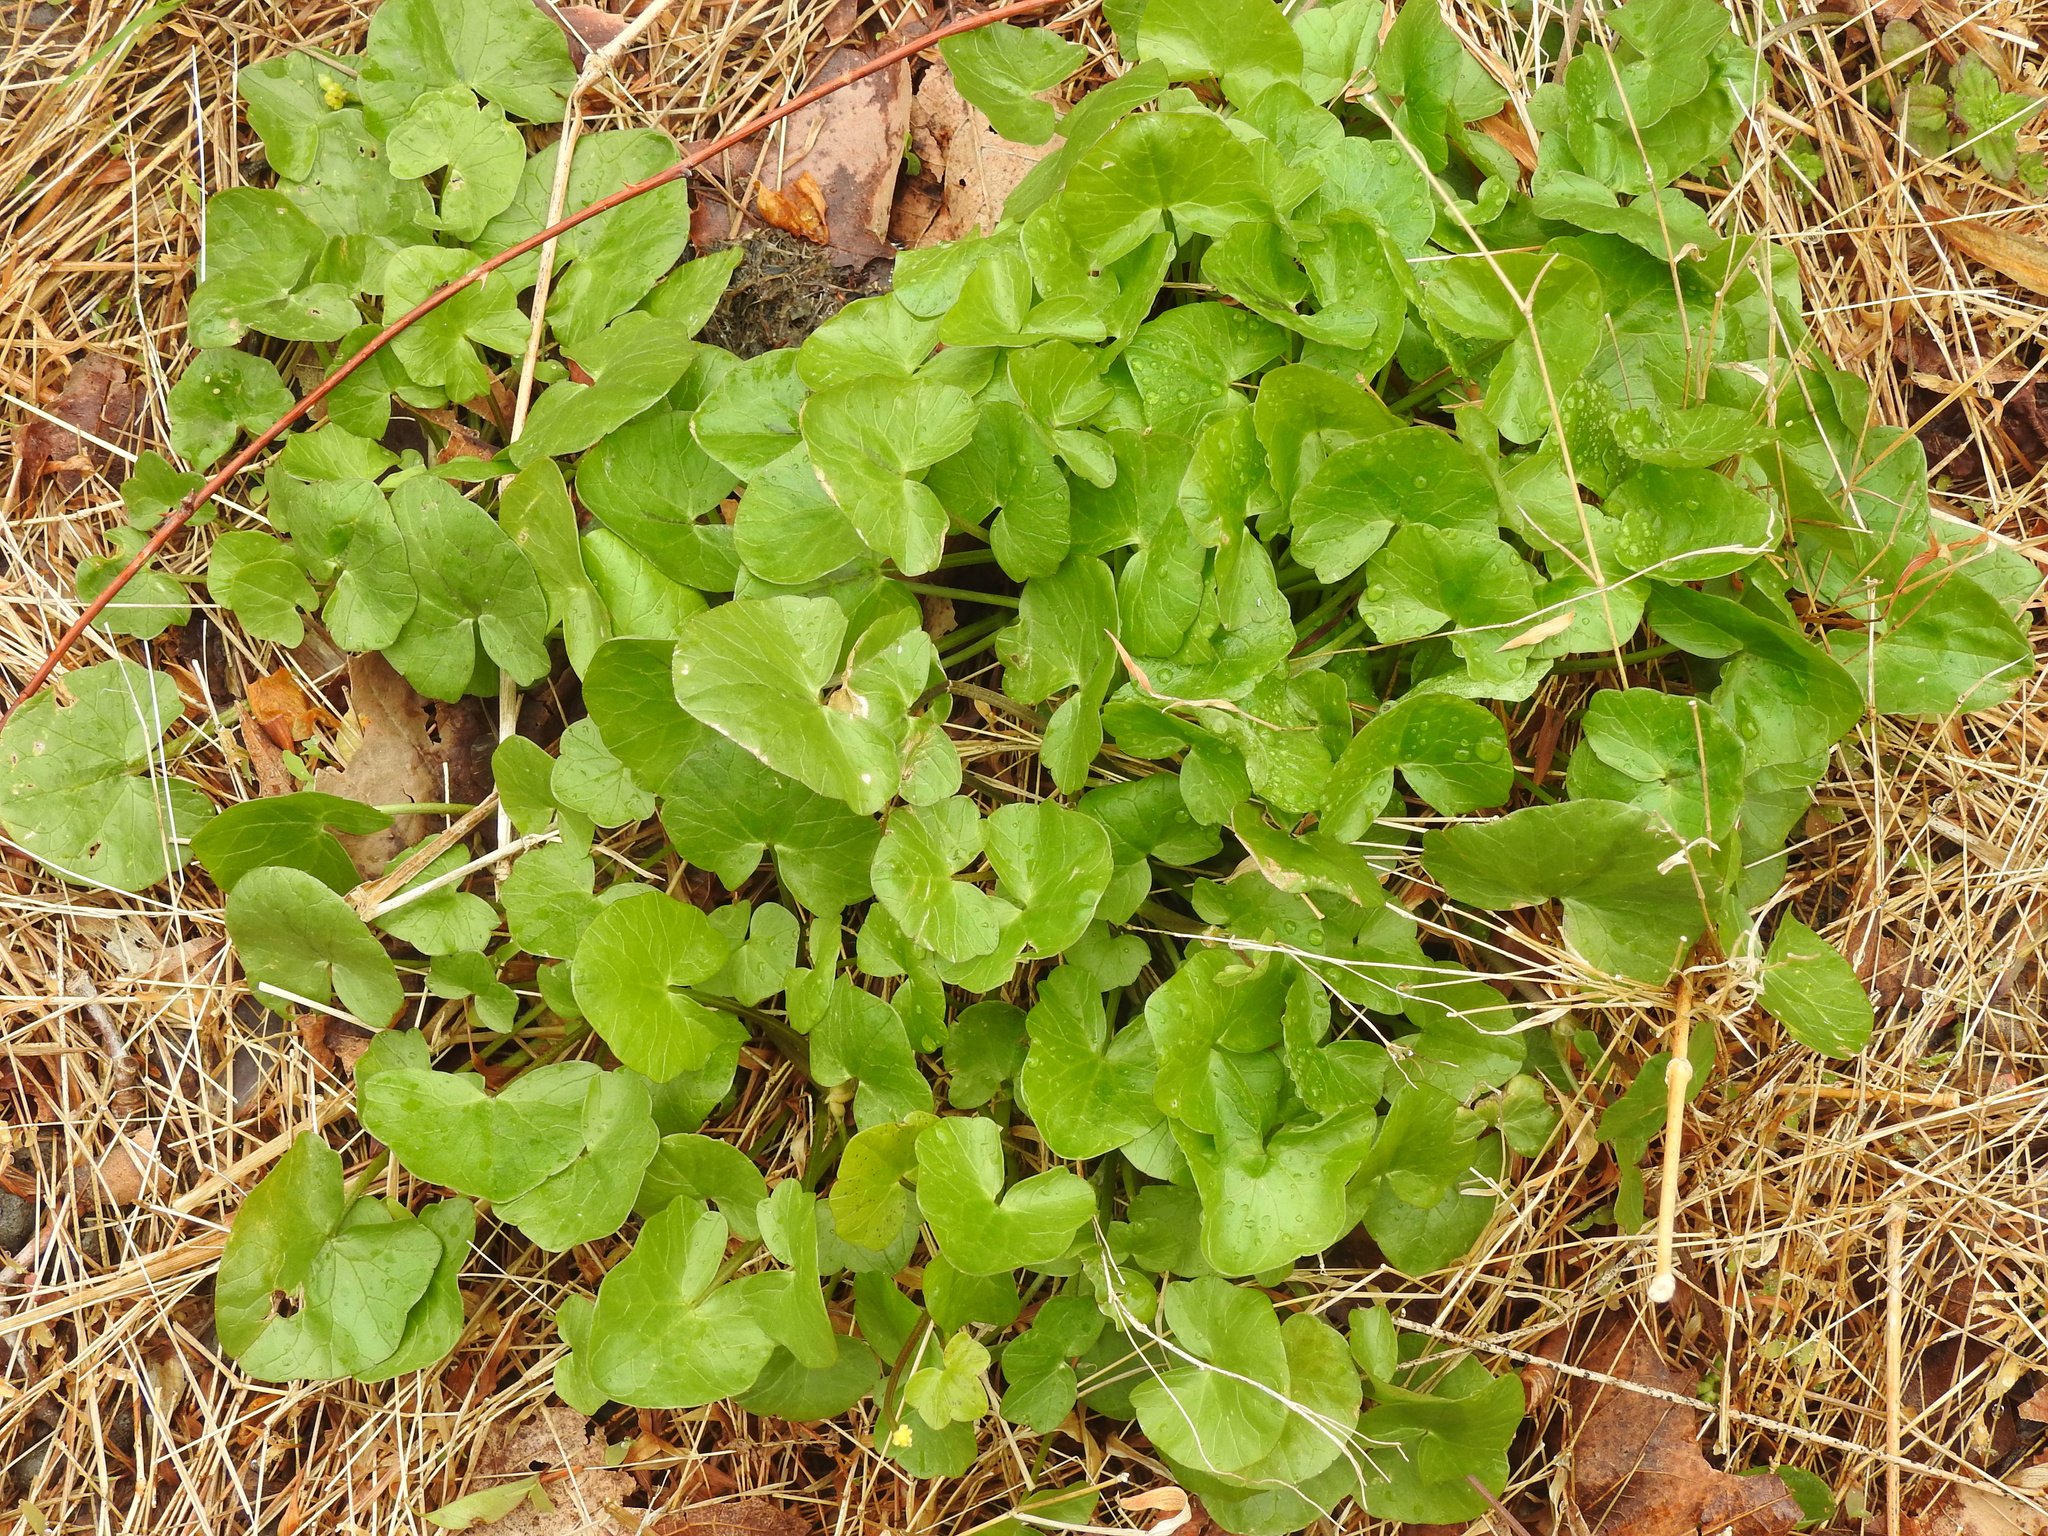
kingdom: Plantae
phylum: Tracheophyta
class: Magnoliopsida
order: Ranunculales
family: Ranunculaceae
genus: Ficaria
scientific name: Ficaria verna
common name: Lesser celandine
